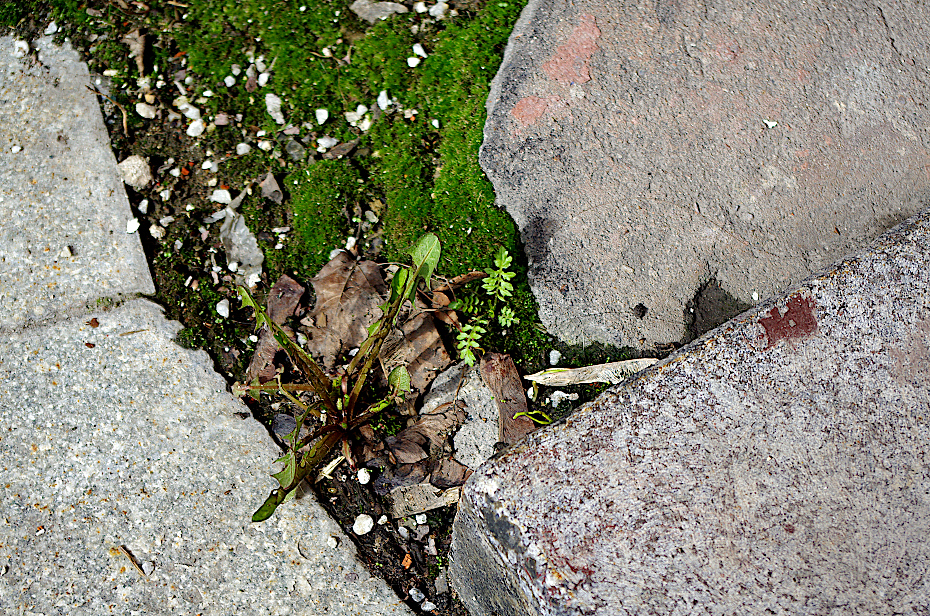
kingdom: Plantae
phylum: Tracheophyta
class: Magnoliopsida
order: Sapindales
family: Sapindaceae
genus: Acer
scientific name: Acer negundo
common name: Ashleaf maple
